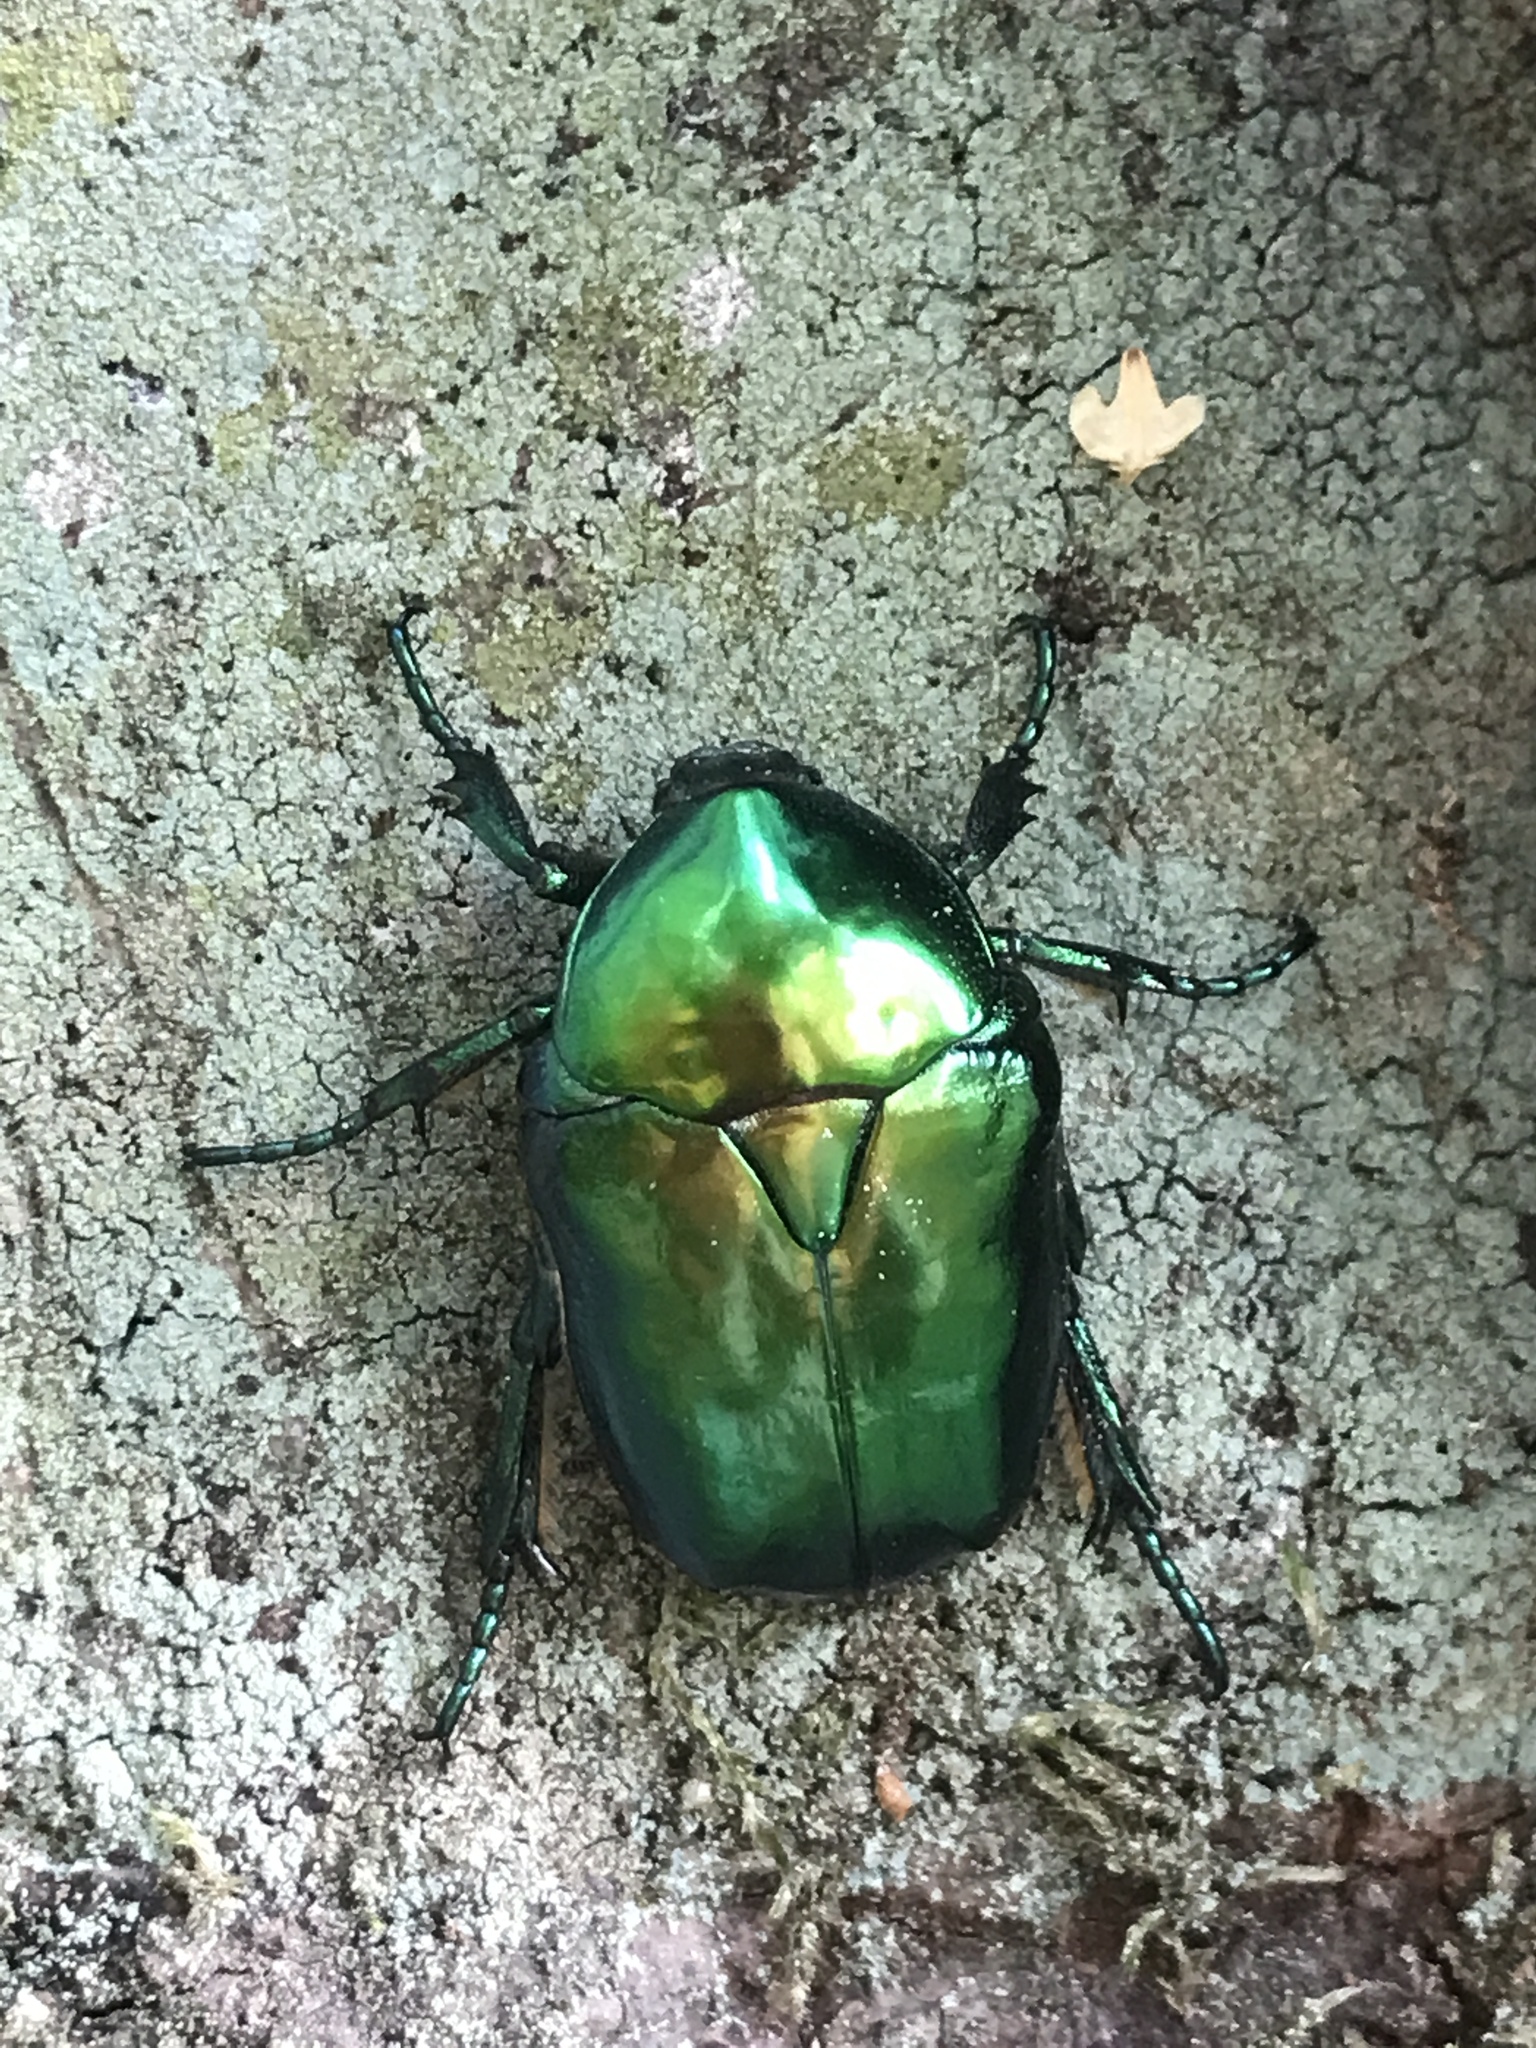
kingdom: Animalia
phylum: Arthropoda
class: Insecta
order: Coleoptera
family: Scarabaeidae
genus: Protaetia
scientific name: Protaetia speciosissima
